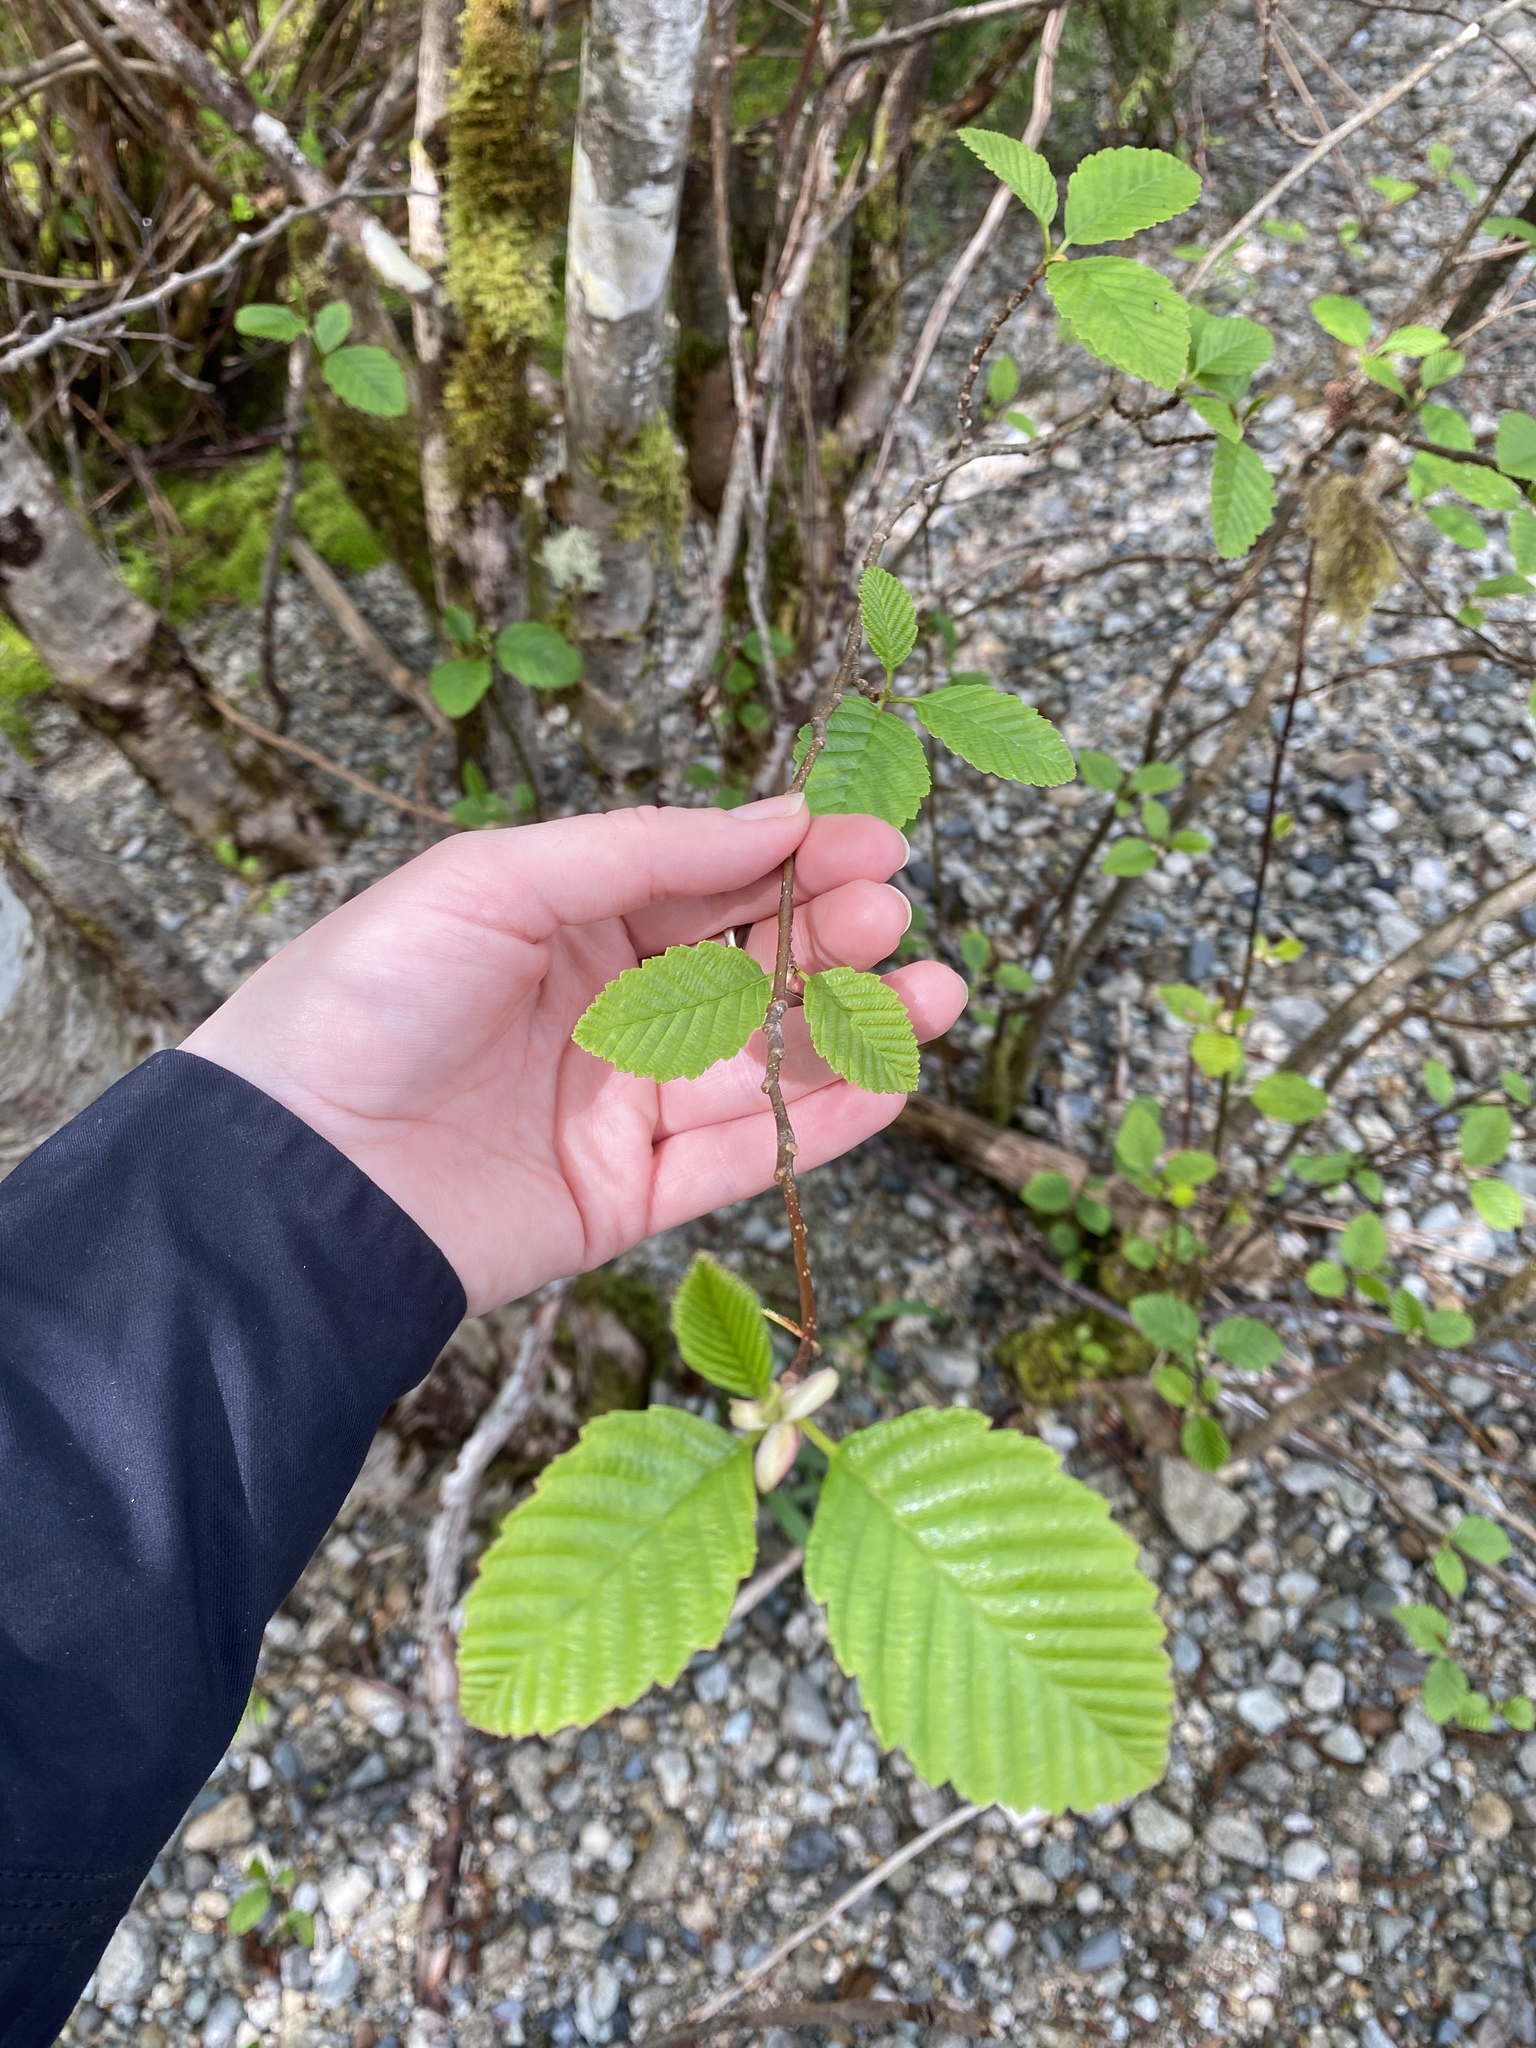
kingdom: Plantae
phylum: Tracheophyta
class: Magnoliopsida
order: Fagales
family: Betulaceae
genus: Alnus
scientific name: Alnus rubra
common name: Red alder
